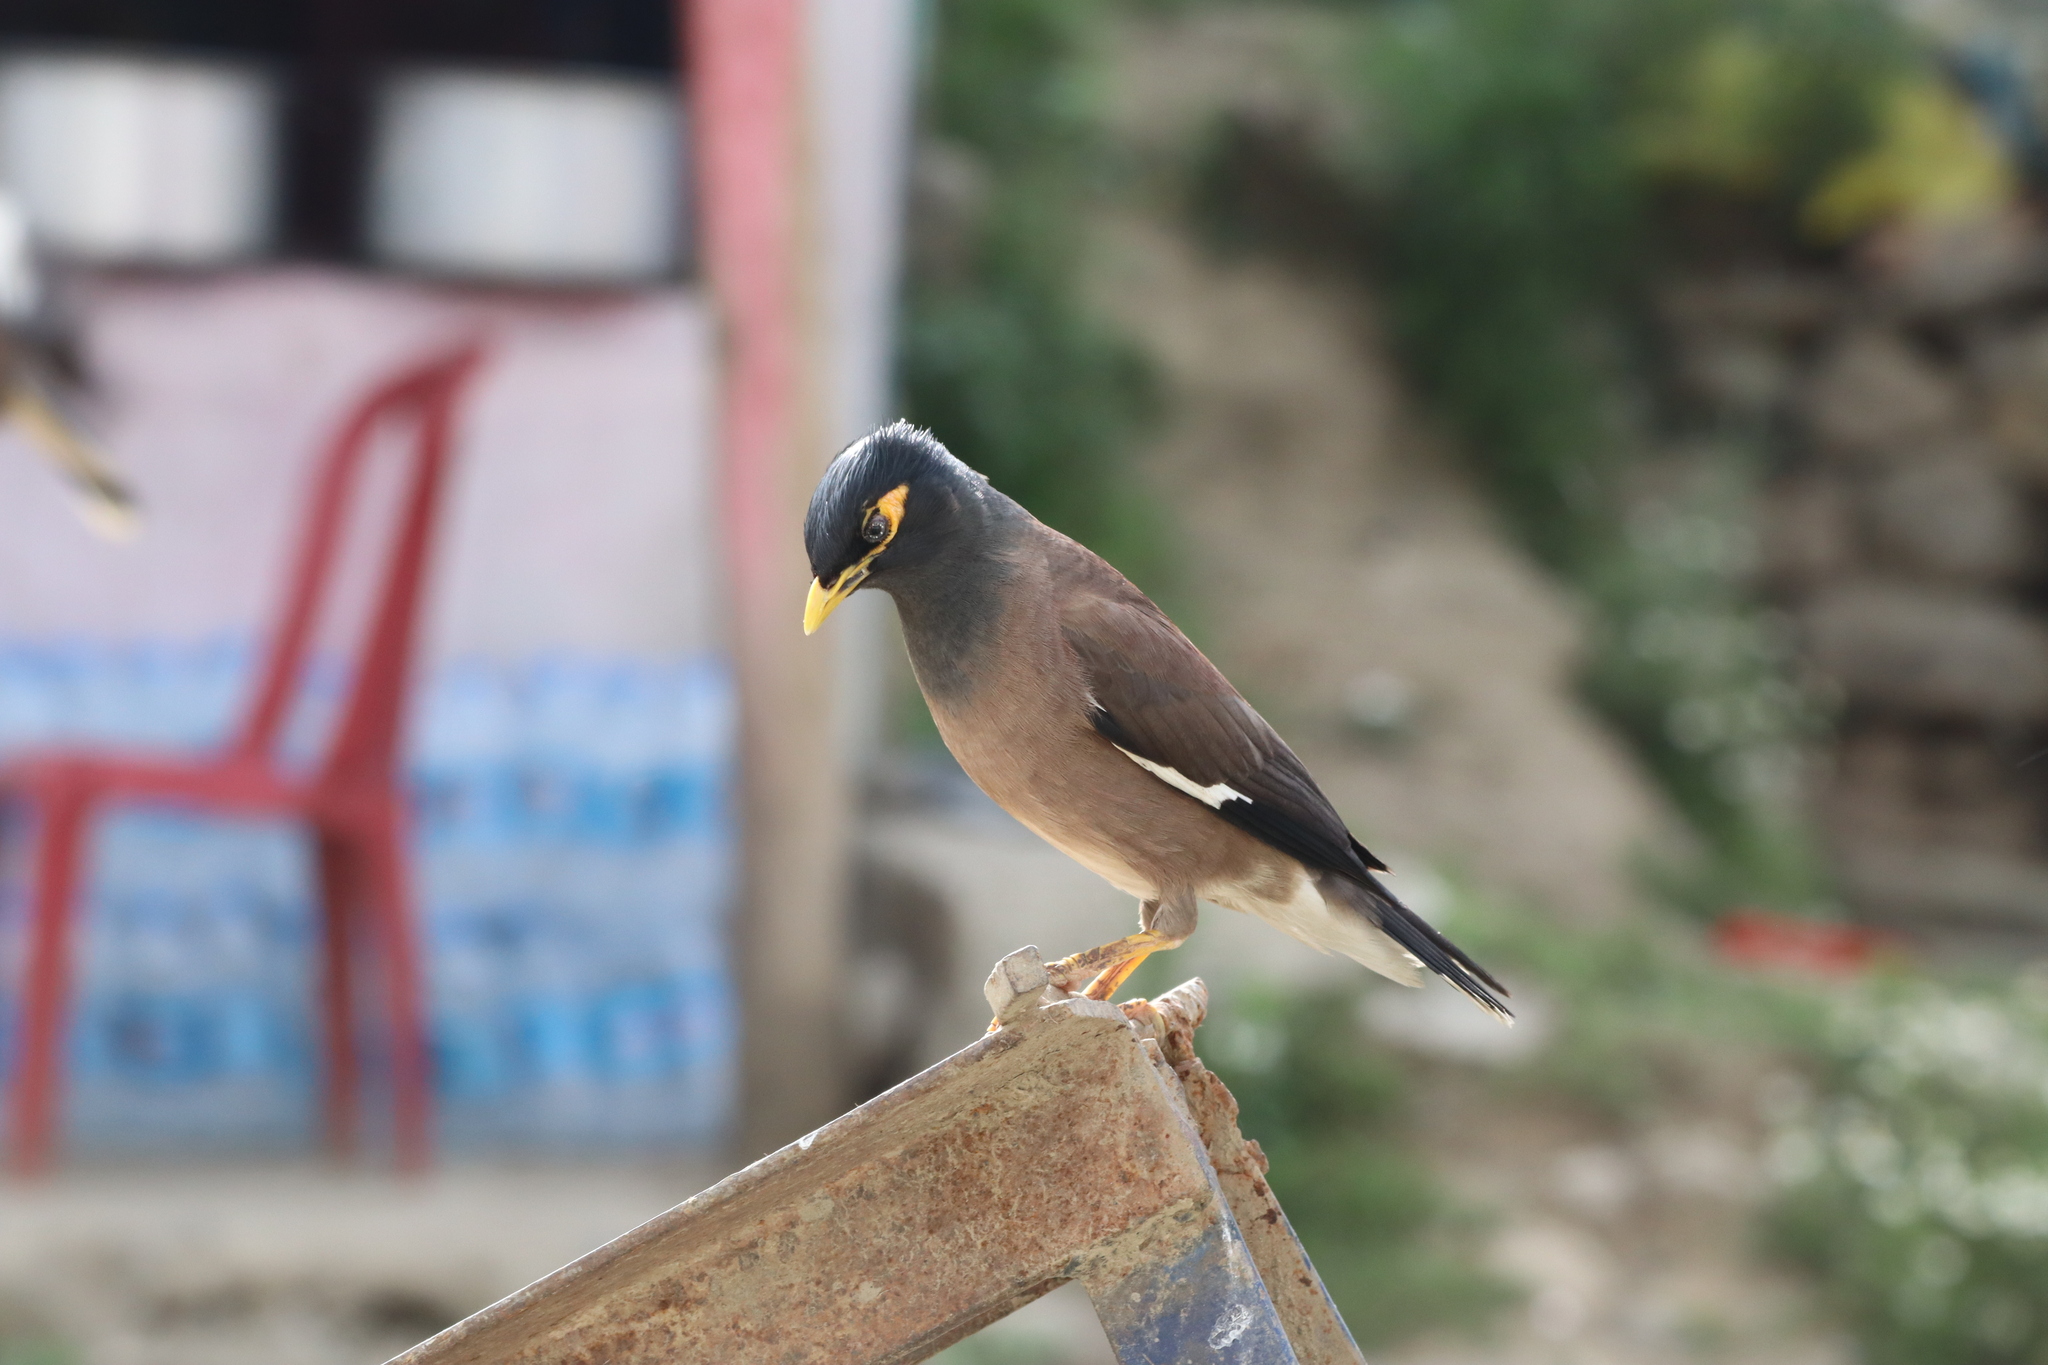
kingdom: Animalia
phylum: Chordata
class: Aves
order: Passeriformes
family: Sturnidae
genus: Acridotheres
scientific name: Acridotheres tristis
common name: Common myna
